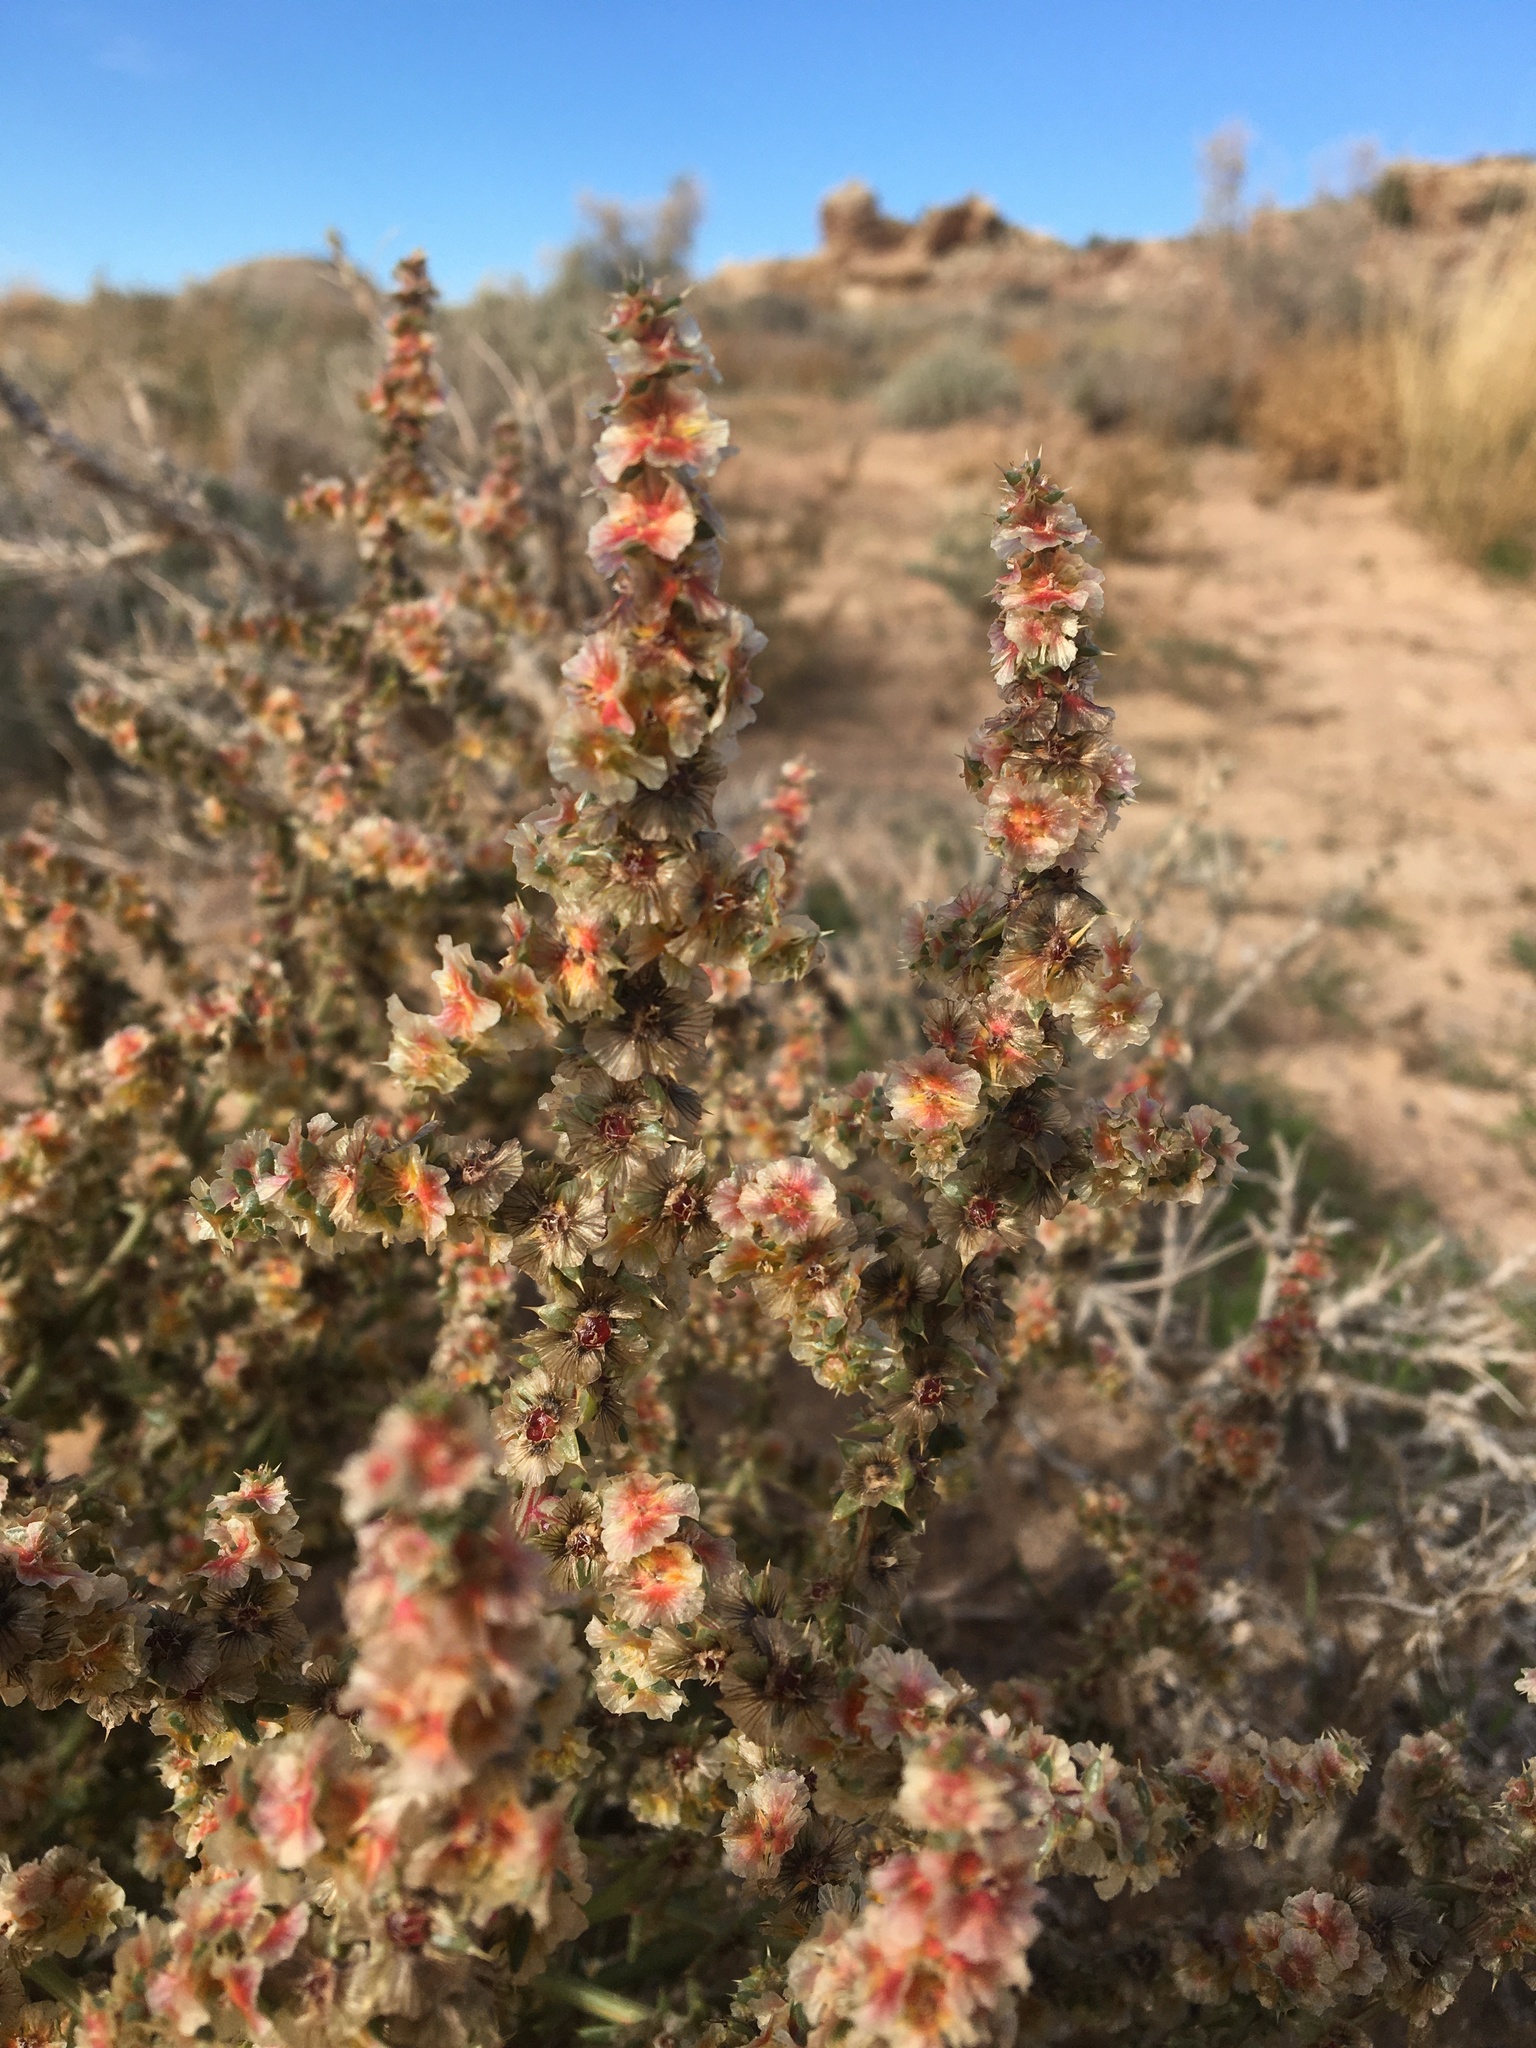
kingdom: Plantae
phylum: Tracheophyta
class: Magnoliopsida
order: Caryophyllales
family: Amaranthaceae
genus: Halogeton
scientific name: Halogeton glomeratus
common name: Saltlover
